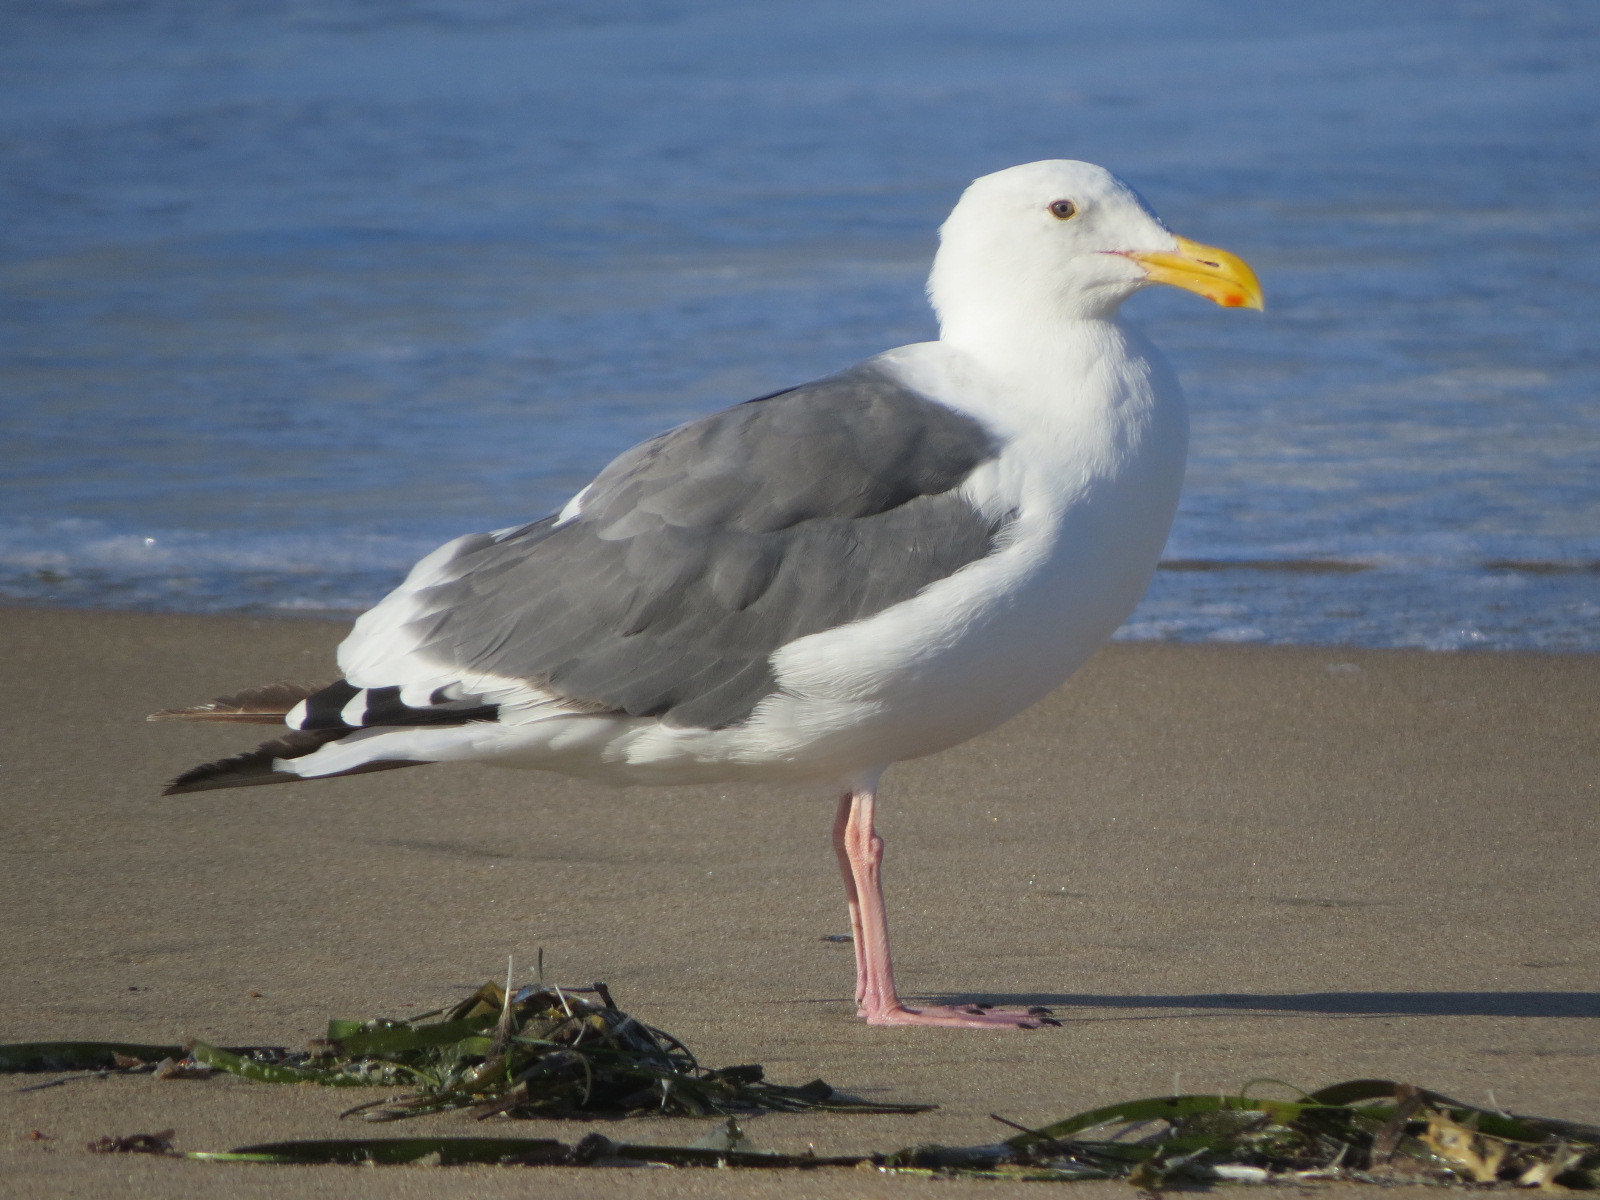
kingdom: Animalia
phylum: Chordata
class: Aves
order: Charadriiformes
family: Laridae
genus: Larus
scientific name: Larus occidentalis
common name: Western gull
